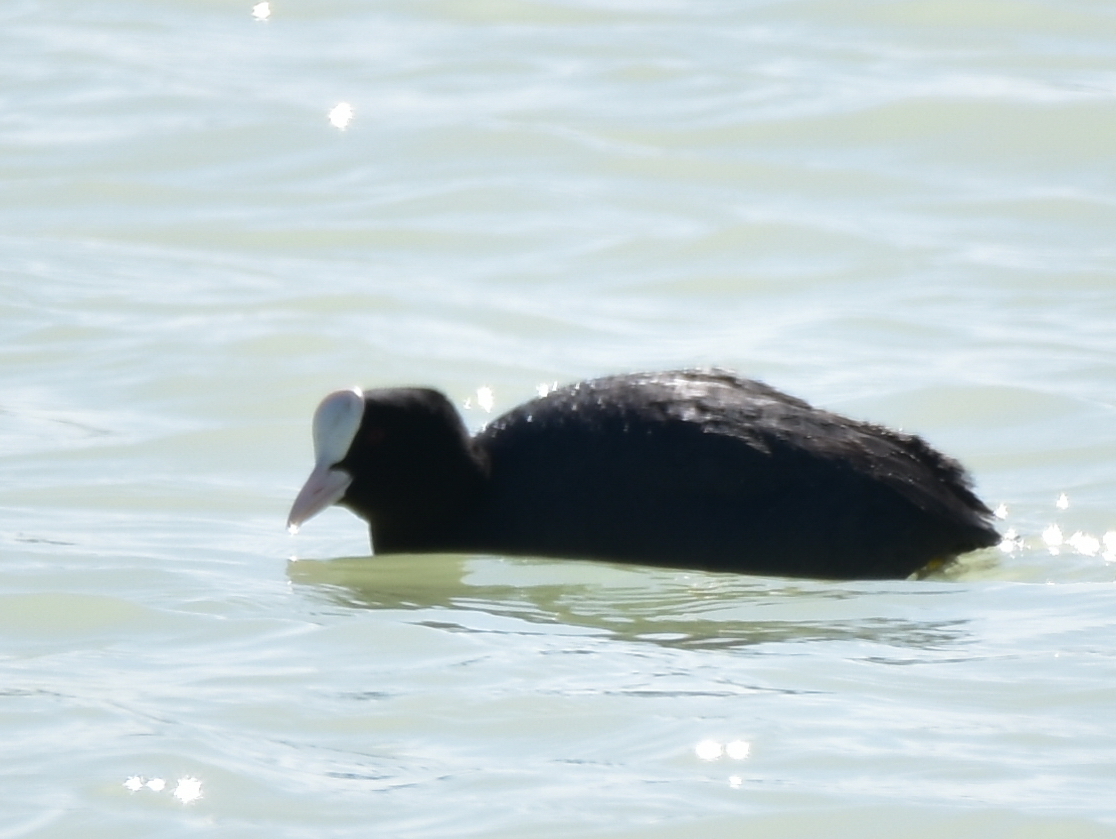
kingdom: Animalia
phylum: Chordata
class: Aves
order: Gruiformes
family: Rallidae
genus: Fulica
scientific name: Fulica atra
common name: Eurasian coot
